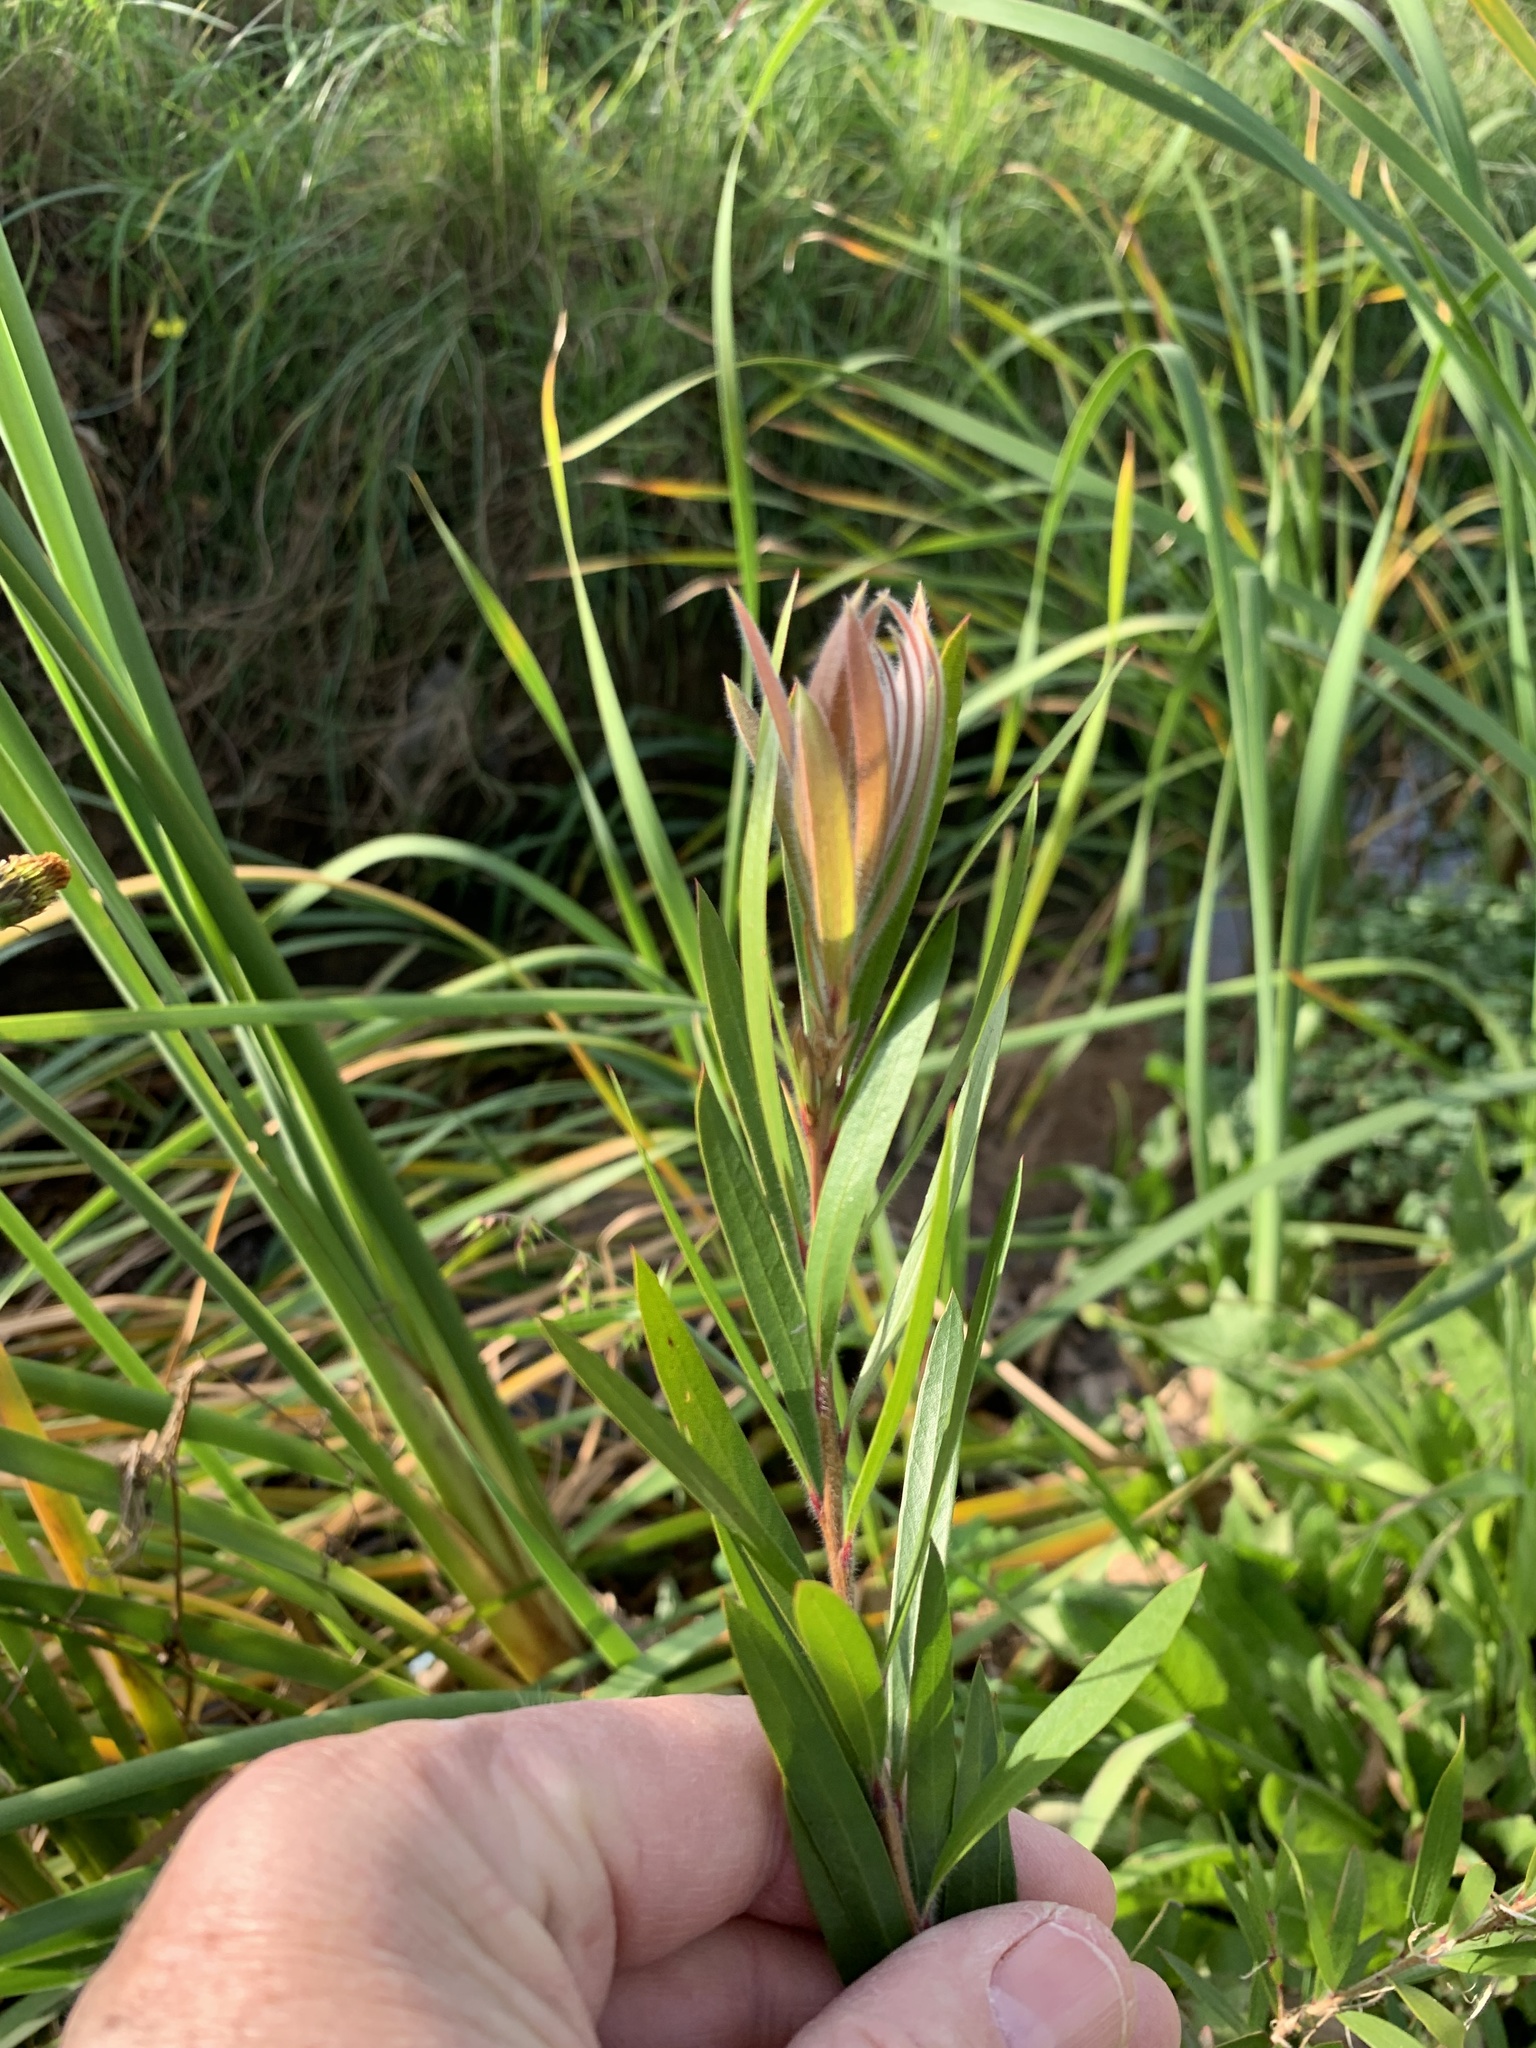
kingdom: Plantae
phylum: Tracheophyta
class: Magnoliopsida
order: Myrtales
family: Myrtaceae
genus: Callistemon
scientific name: Callistemon viminalis
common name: Drooping bottlebrush
